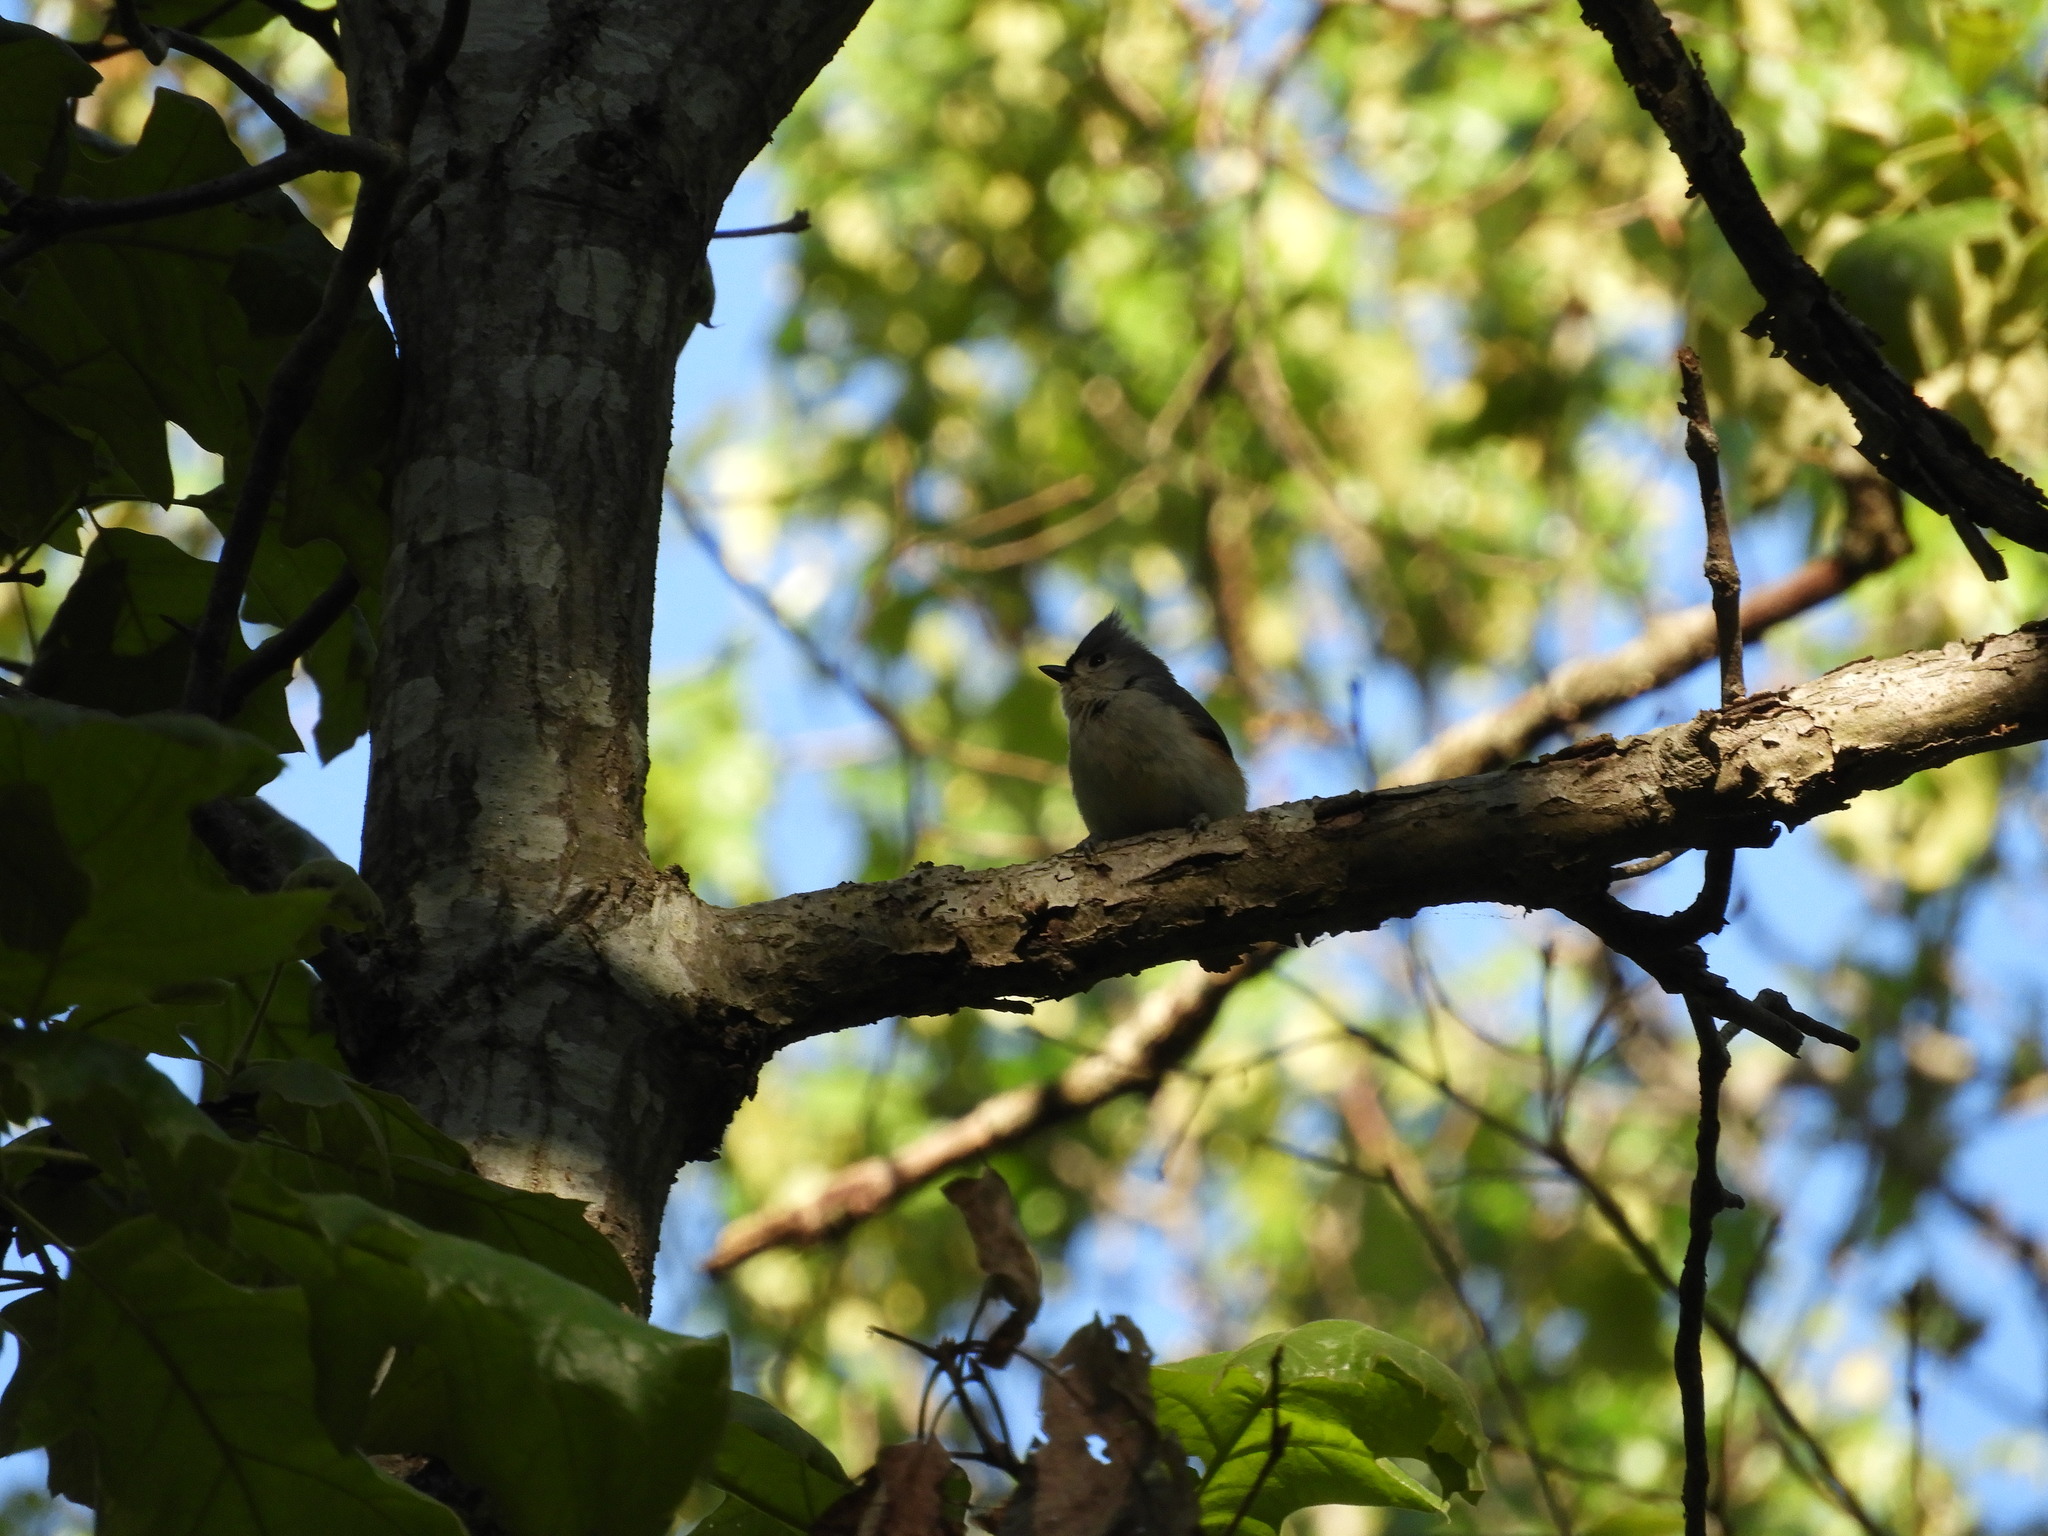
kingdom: Animalia
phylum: Chordata
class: Aves
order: Passeriformes
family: Paridae
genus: Baeolophus
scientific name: Baeolophus bicolor
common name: Tufted titmouse
